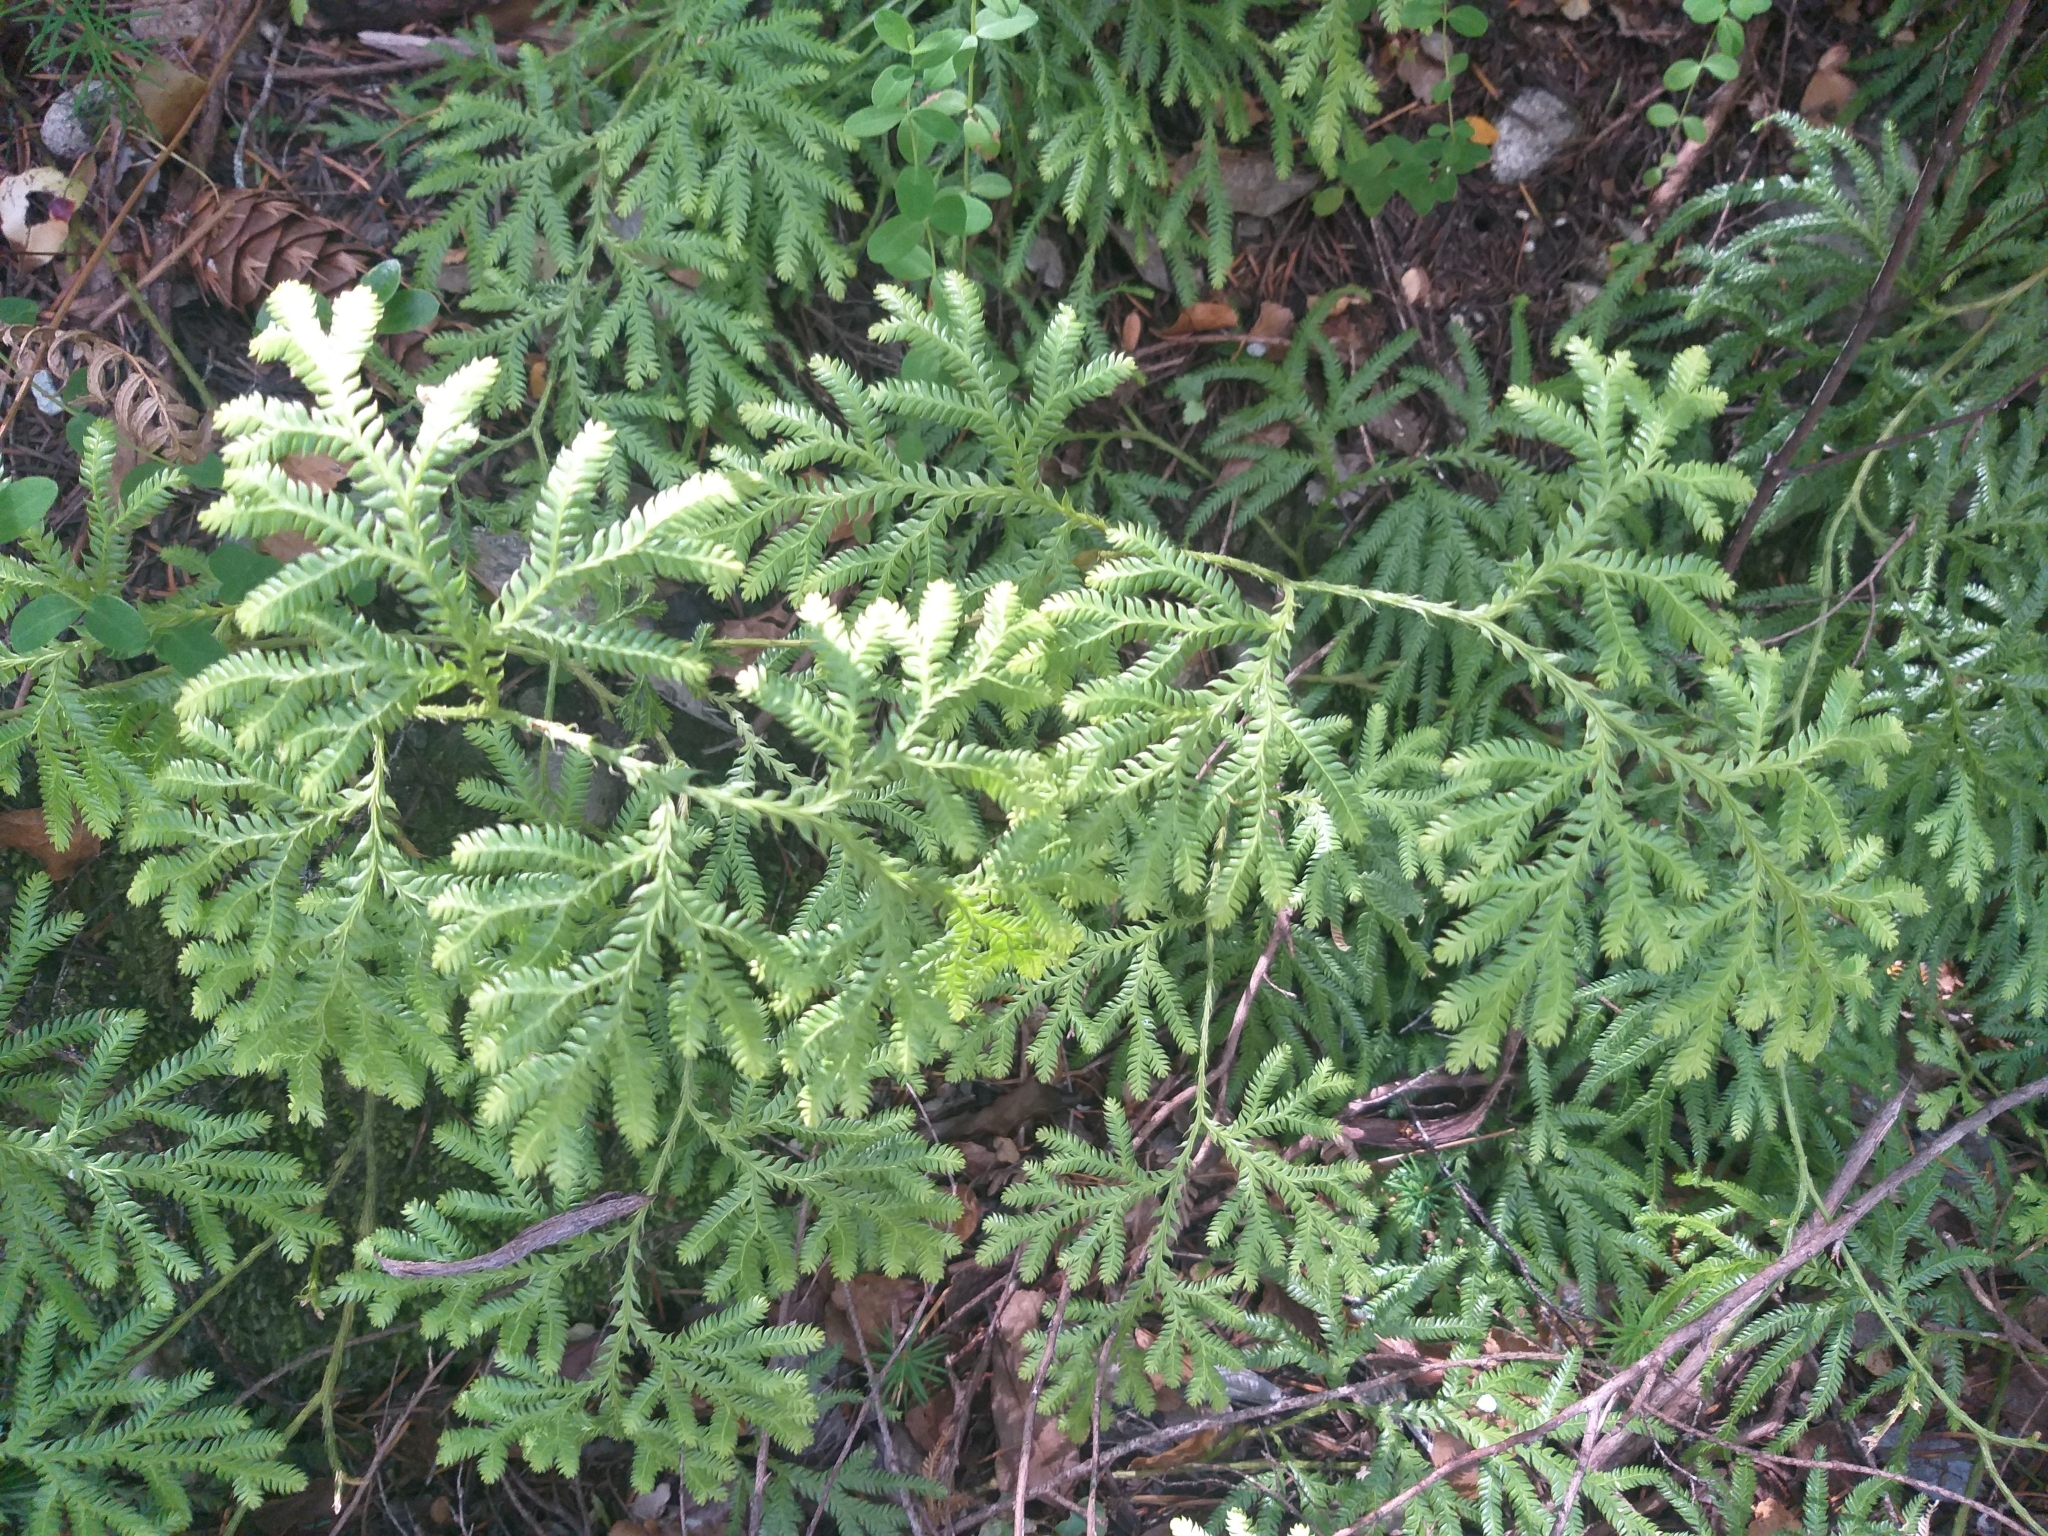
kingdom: Plantae
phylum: Tracheophyta
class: Lycopodiopsida
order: Lycopodiales
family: Lycopodiaceae
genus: Lycopodium
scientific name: Lycopodium volubile
